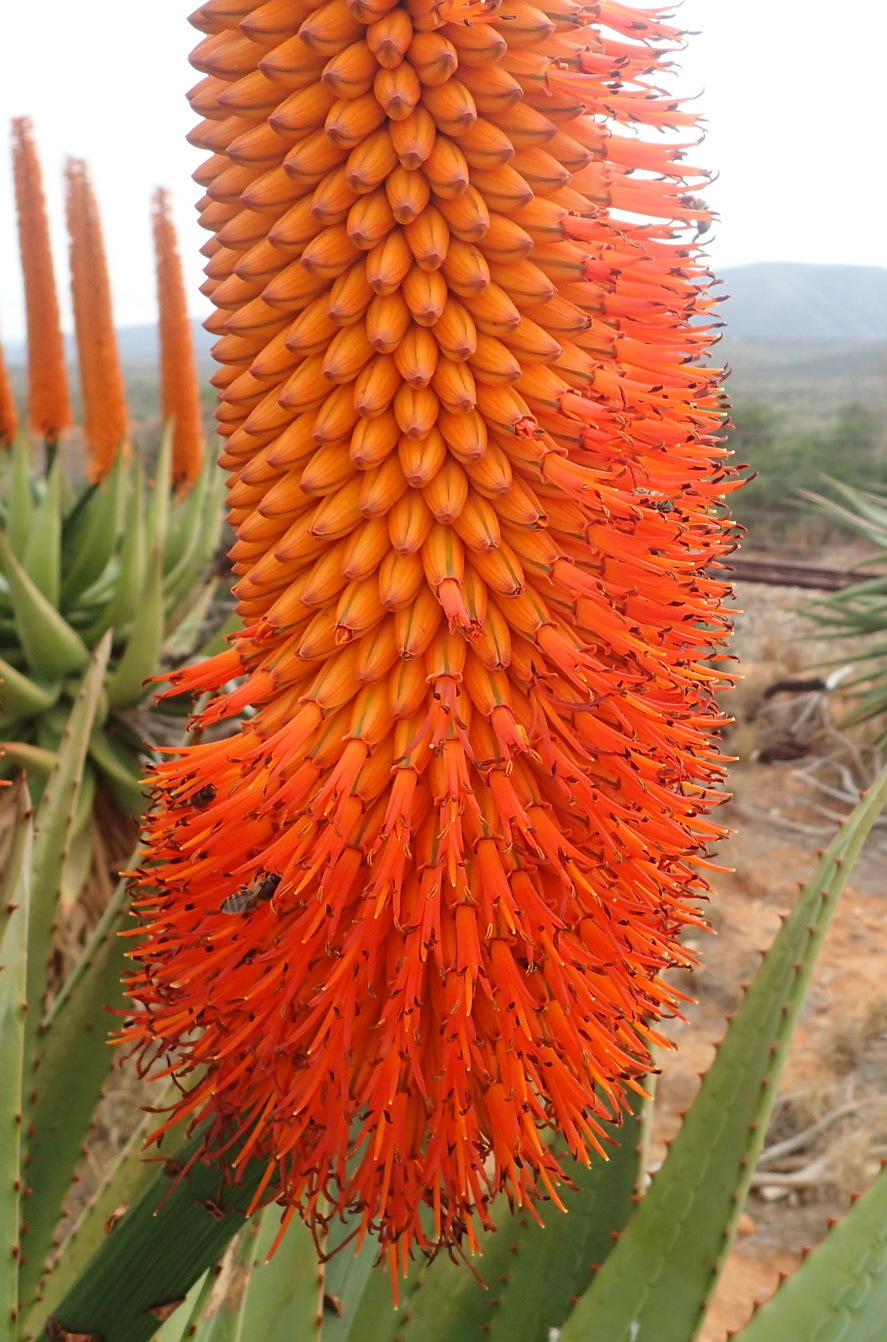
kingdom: Plantae
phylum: Tracheophyta
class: Liliopsida
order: Asparagales
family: Asphodelaceae
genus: Aloe
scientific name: Aloe ferox
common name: Bitter aloe
